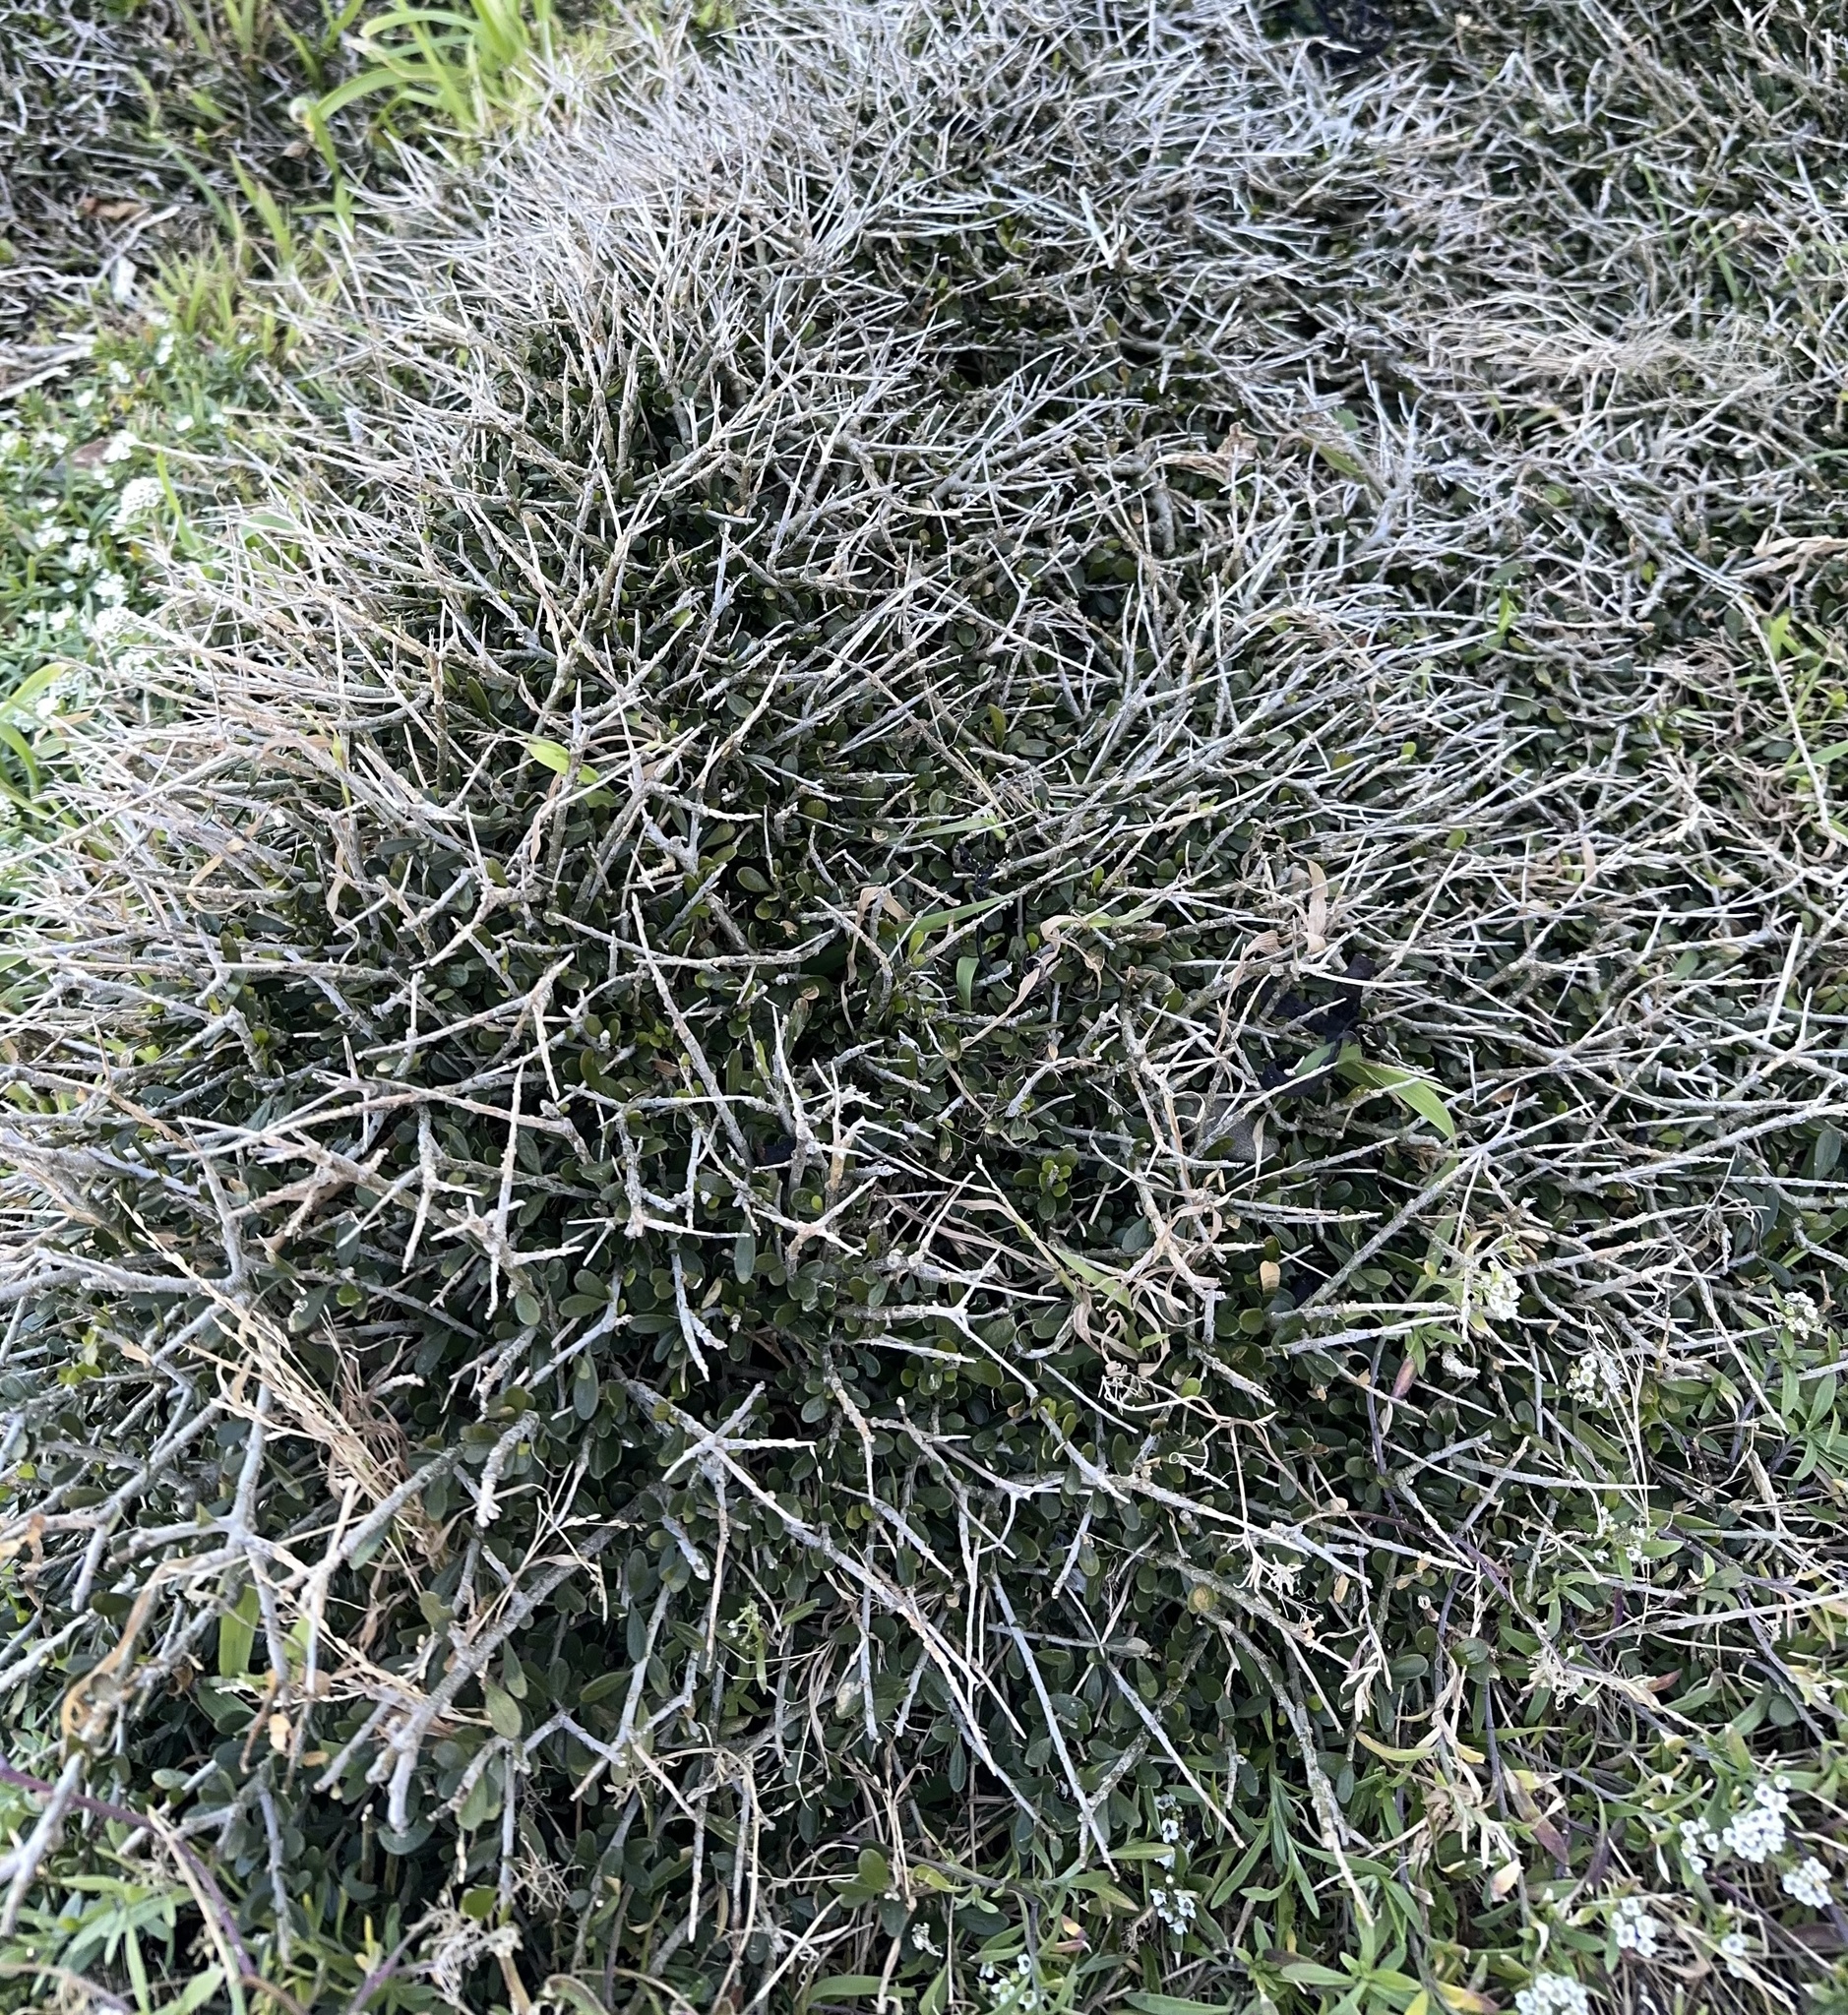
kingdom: Plantae
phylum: Tracheophyta
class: Magnoliopsida
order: Malpighiales
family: Violaceae
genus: Melicytus
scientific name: Melicytus crassifolius
